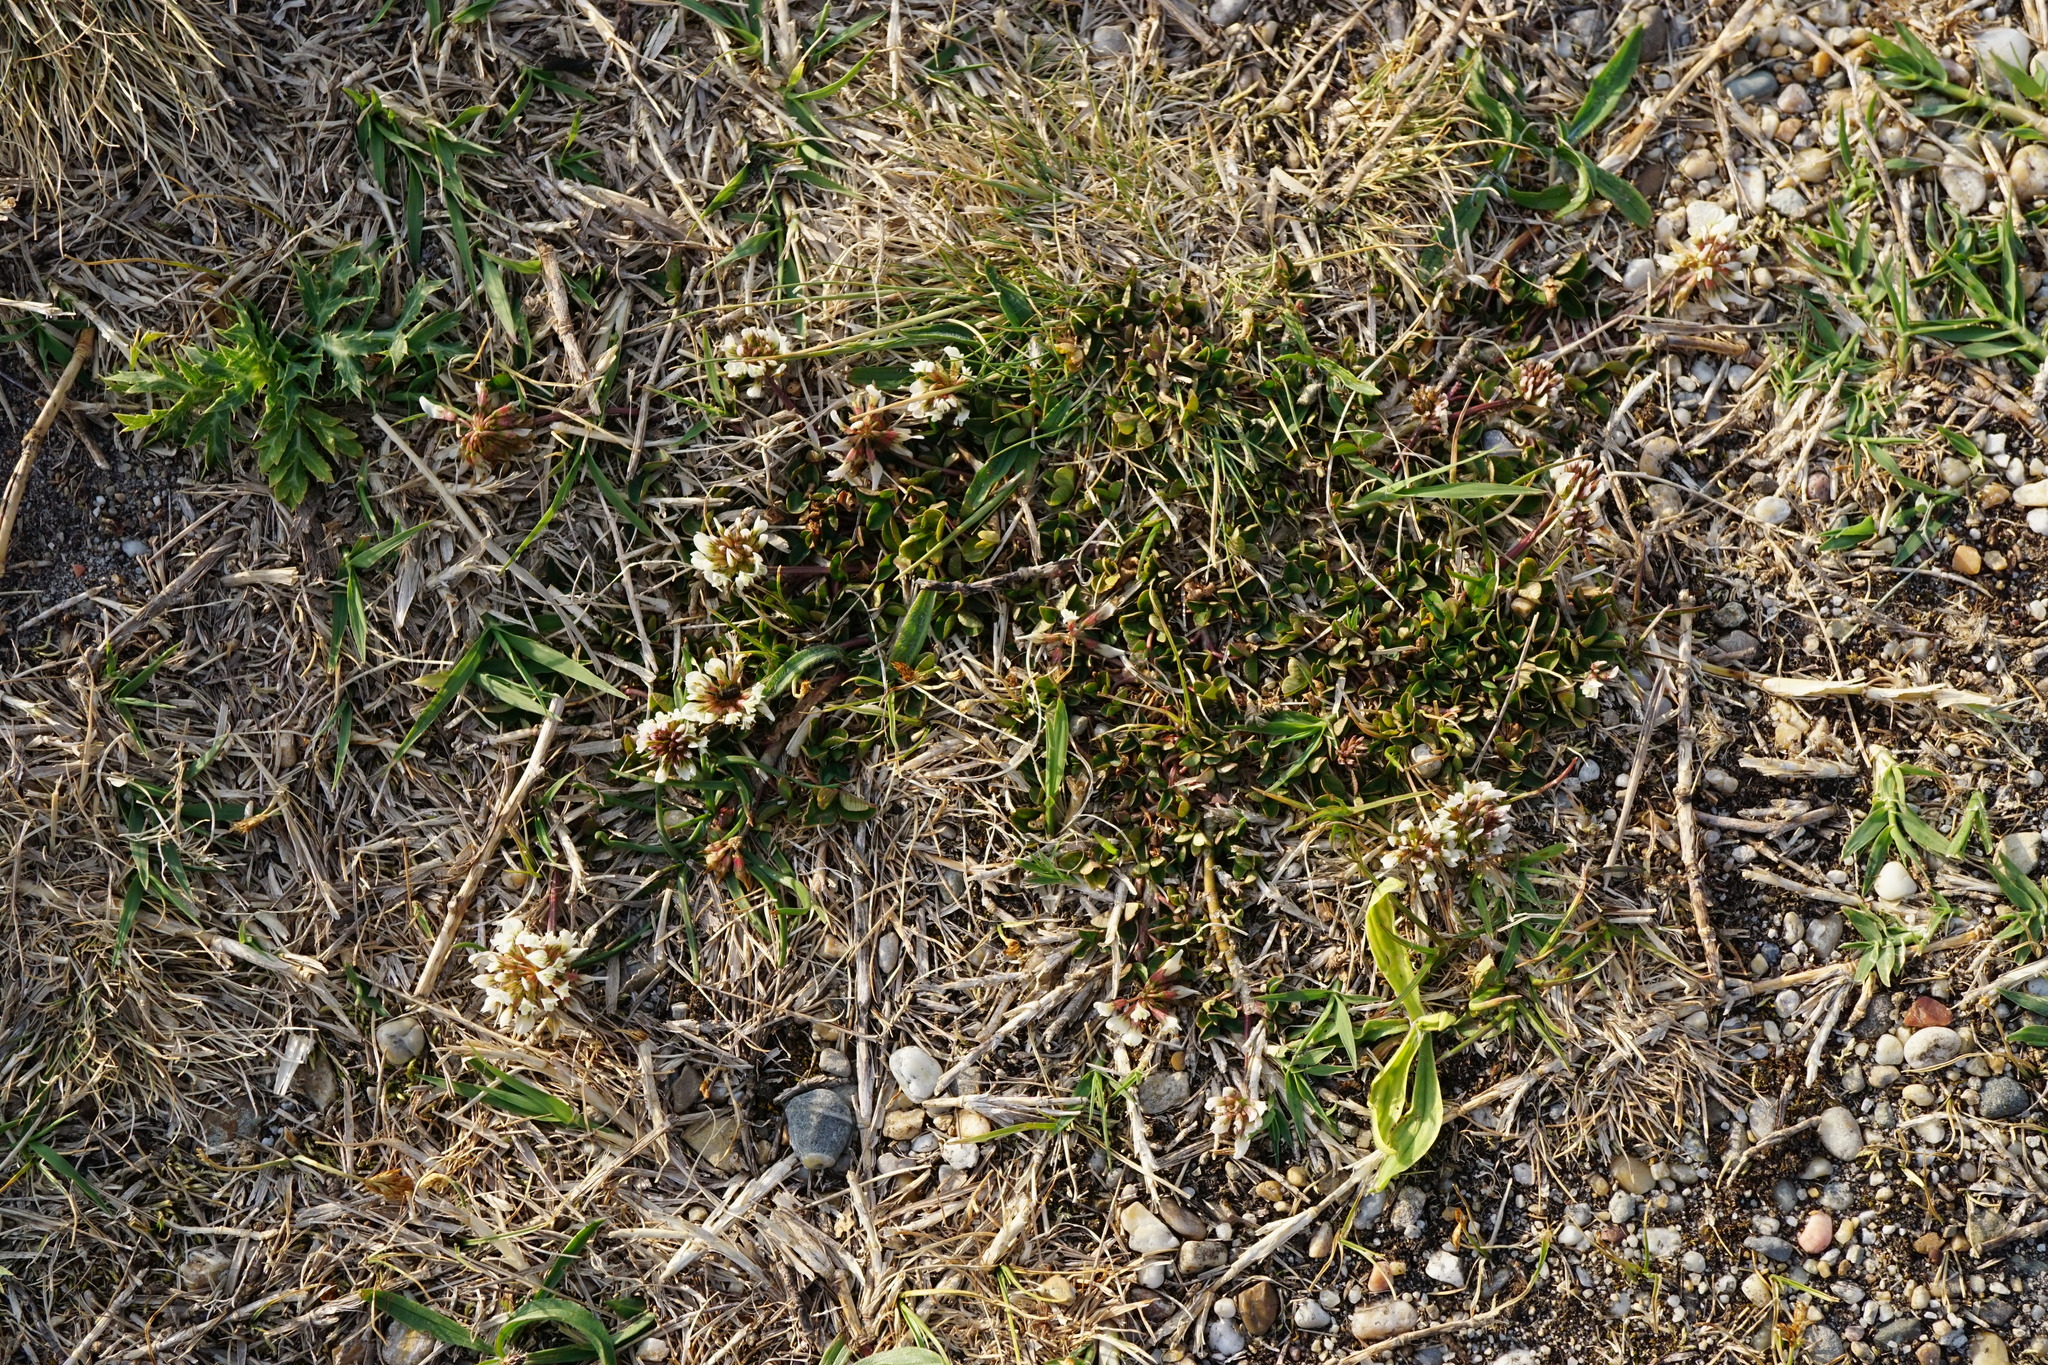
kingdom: Plantae
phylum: Tracheophyta
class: Magnoliopsida
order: Fabales
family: Fabaceae
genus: Trifolium
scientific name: Trifolium repens
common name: White clover
